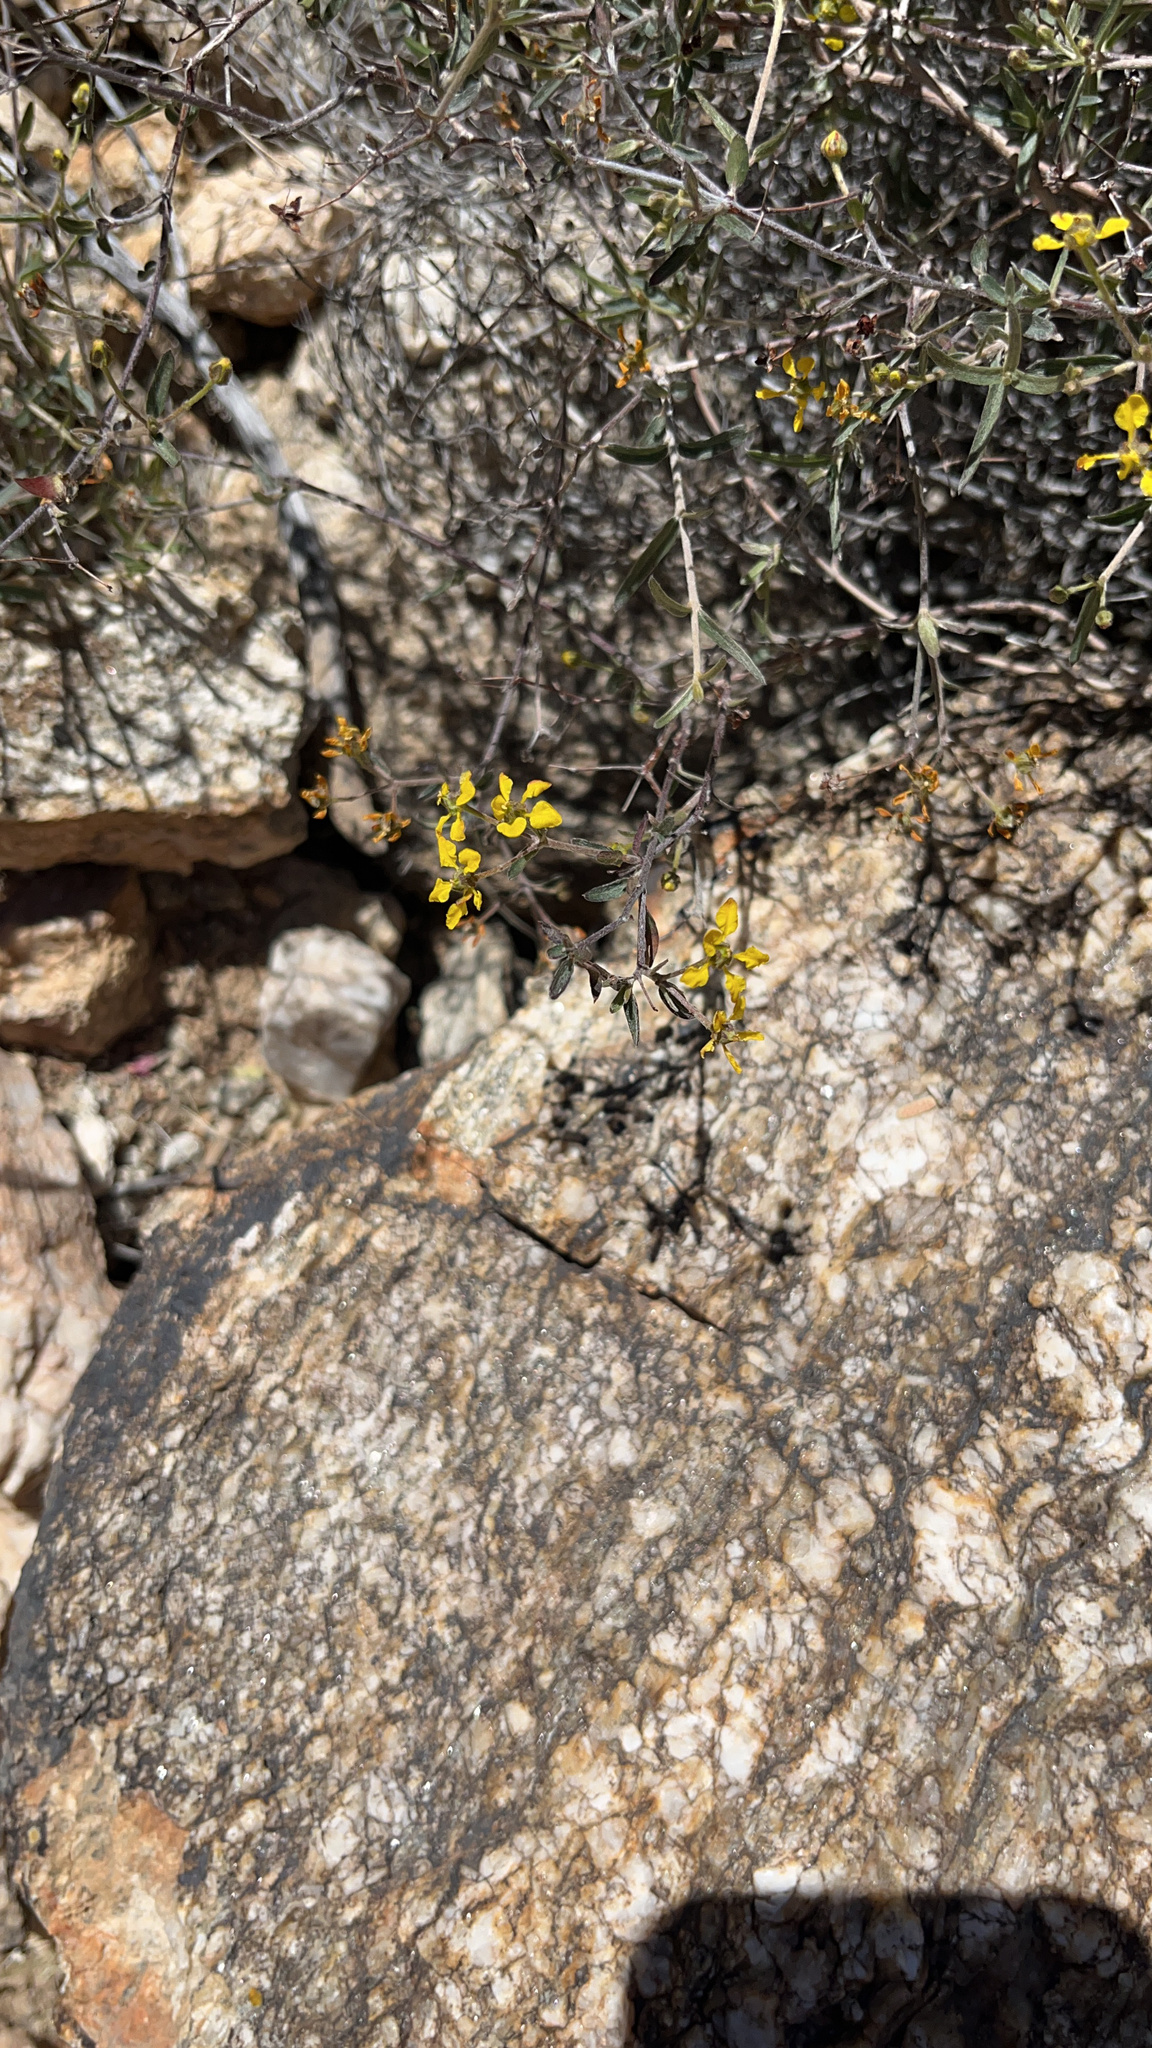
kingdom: Plantae
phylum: Tracheophyta
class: Magnoliopsida
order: Malpighiales
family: Malpighiaceae
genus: Cottsia
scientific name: Cottsia gracilis
